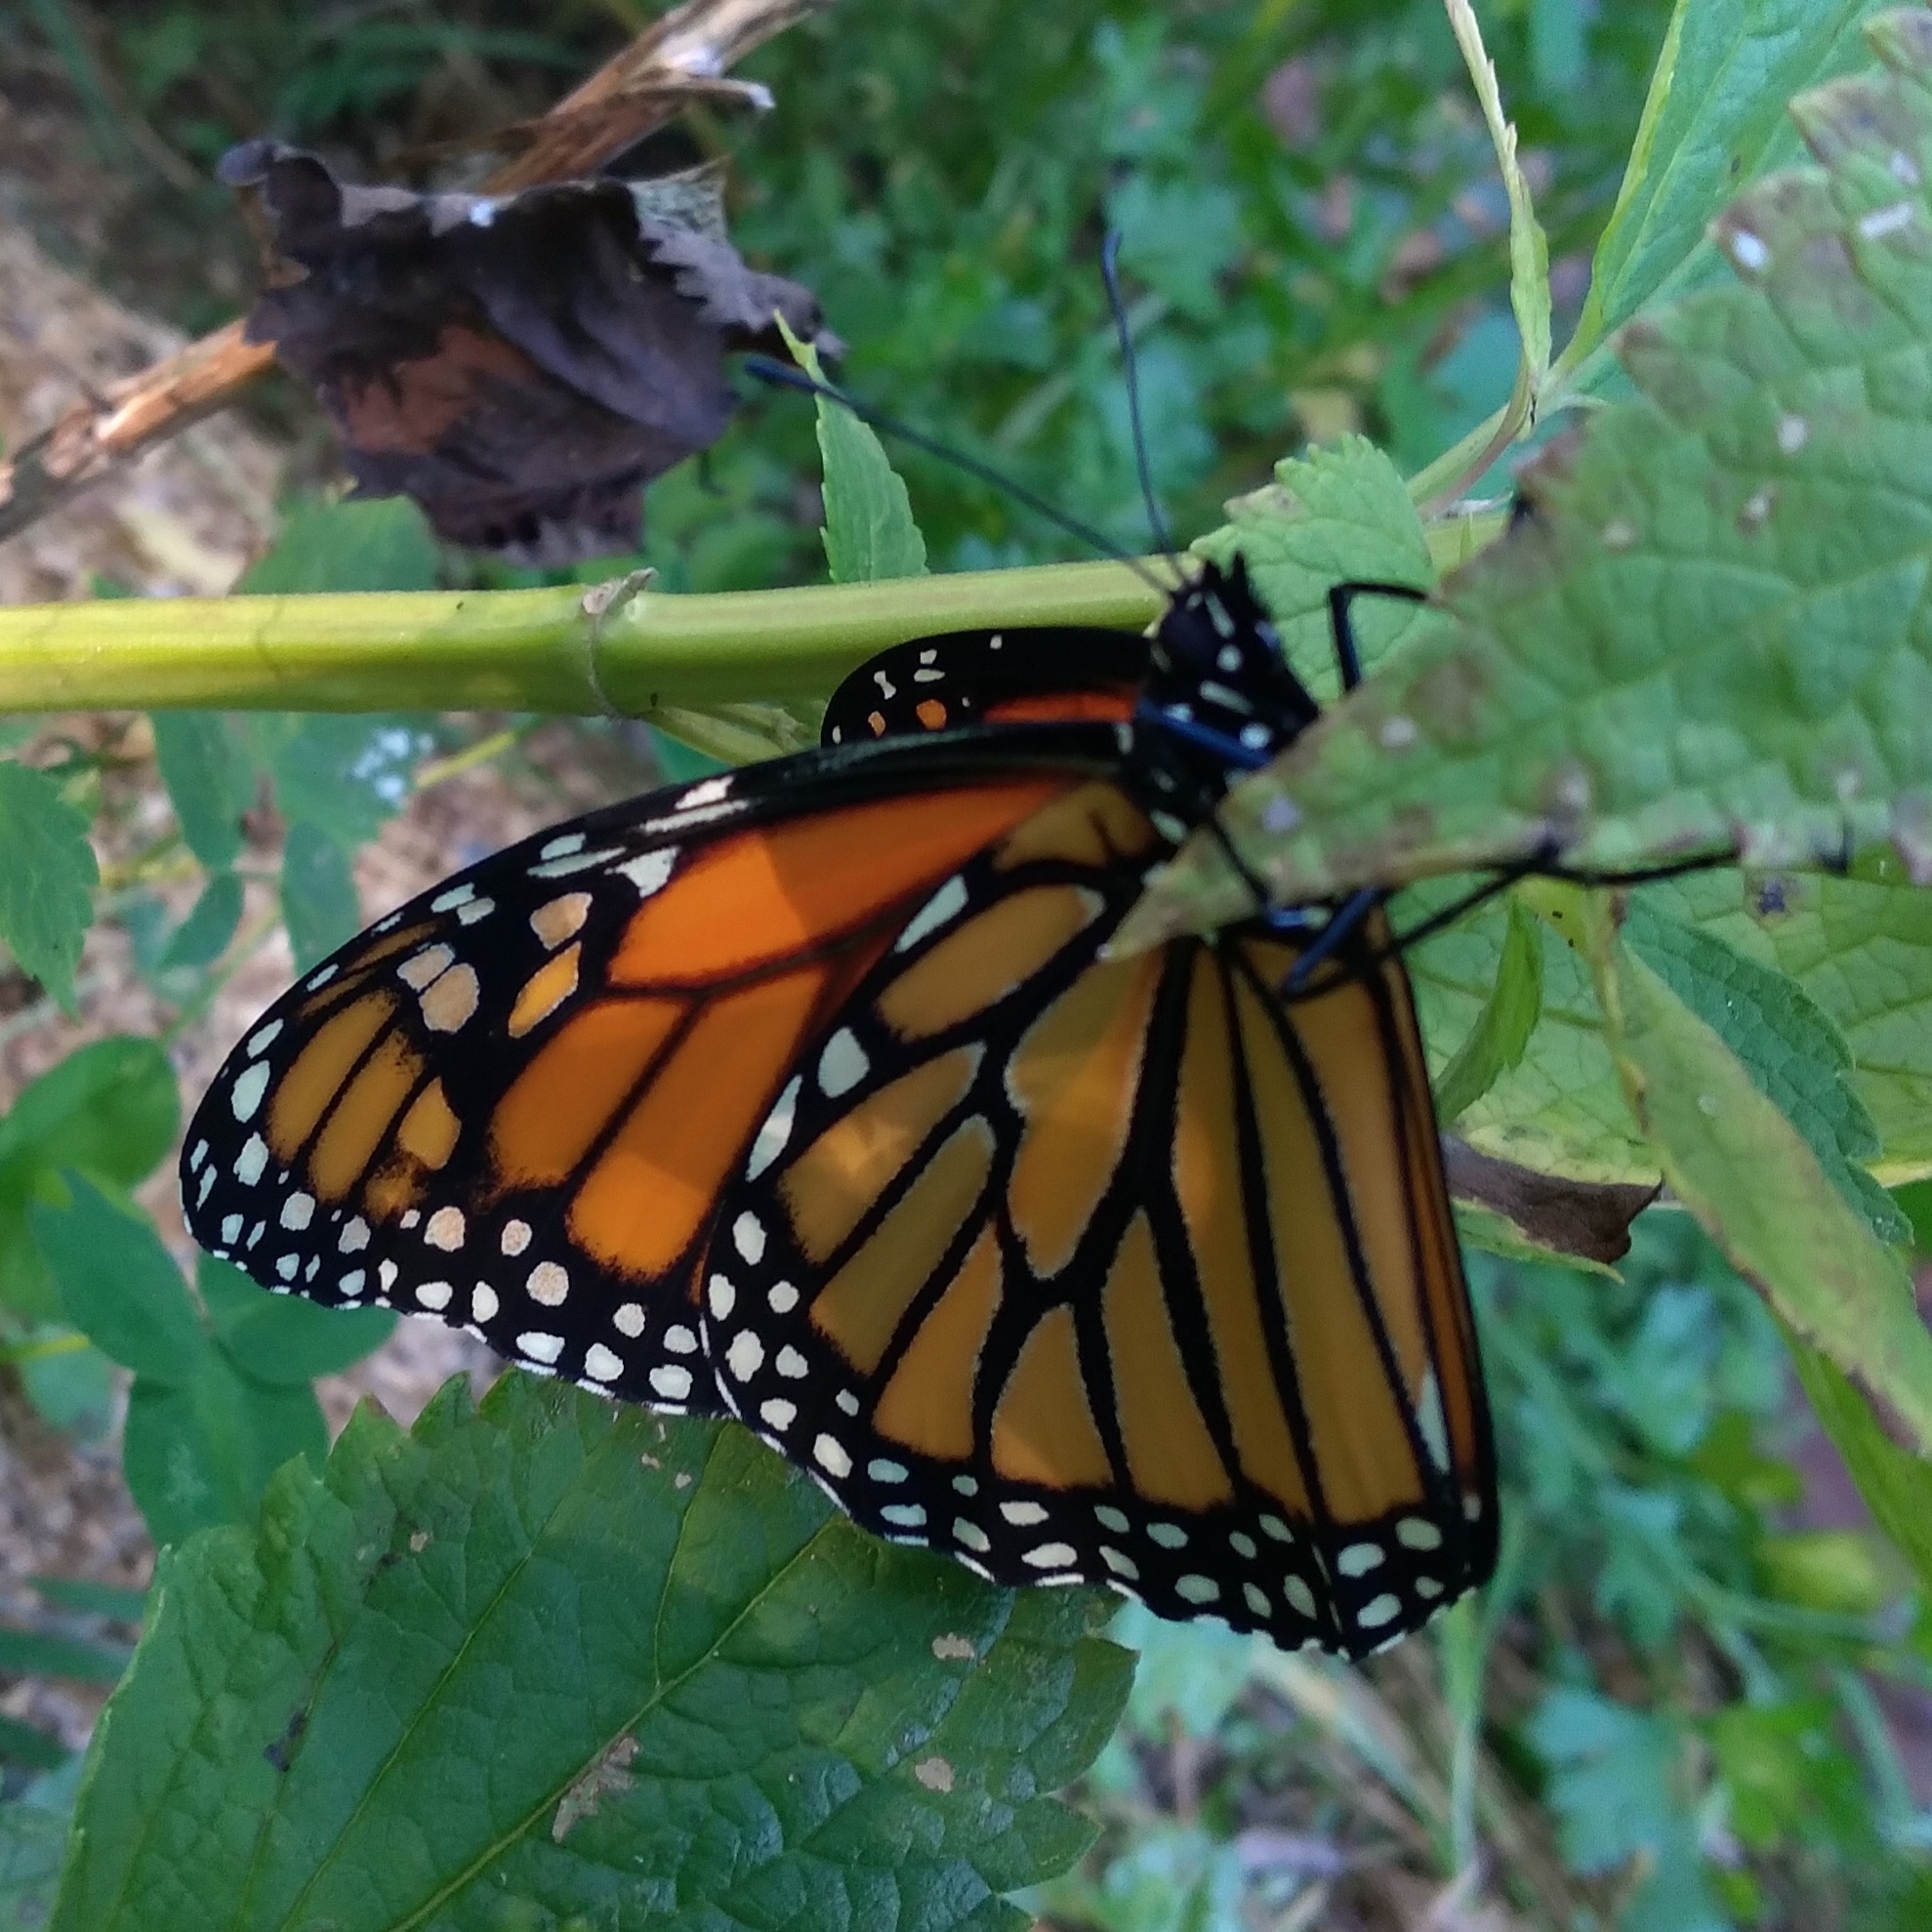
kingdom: Animalia
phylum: Arthropoda
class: Insecta
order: Lepidoptera
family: Nymphalidae
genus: Danaus
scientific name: Danaus plexippus
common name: Monarch
